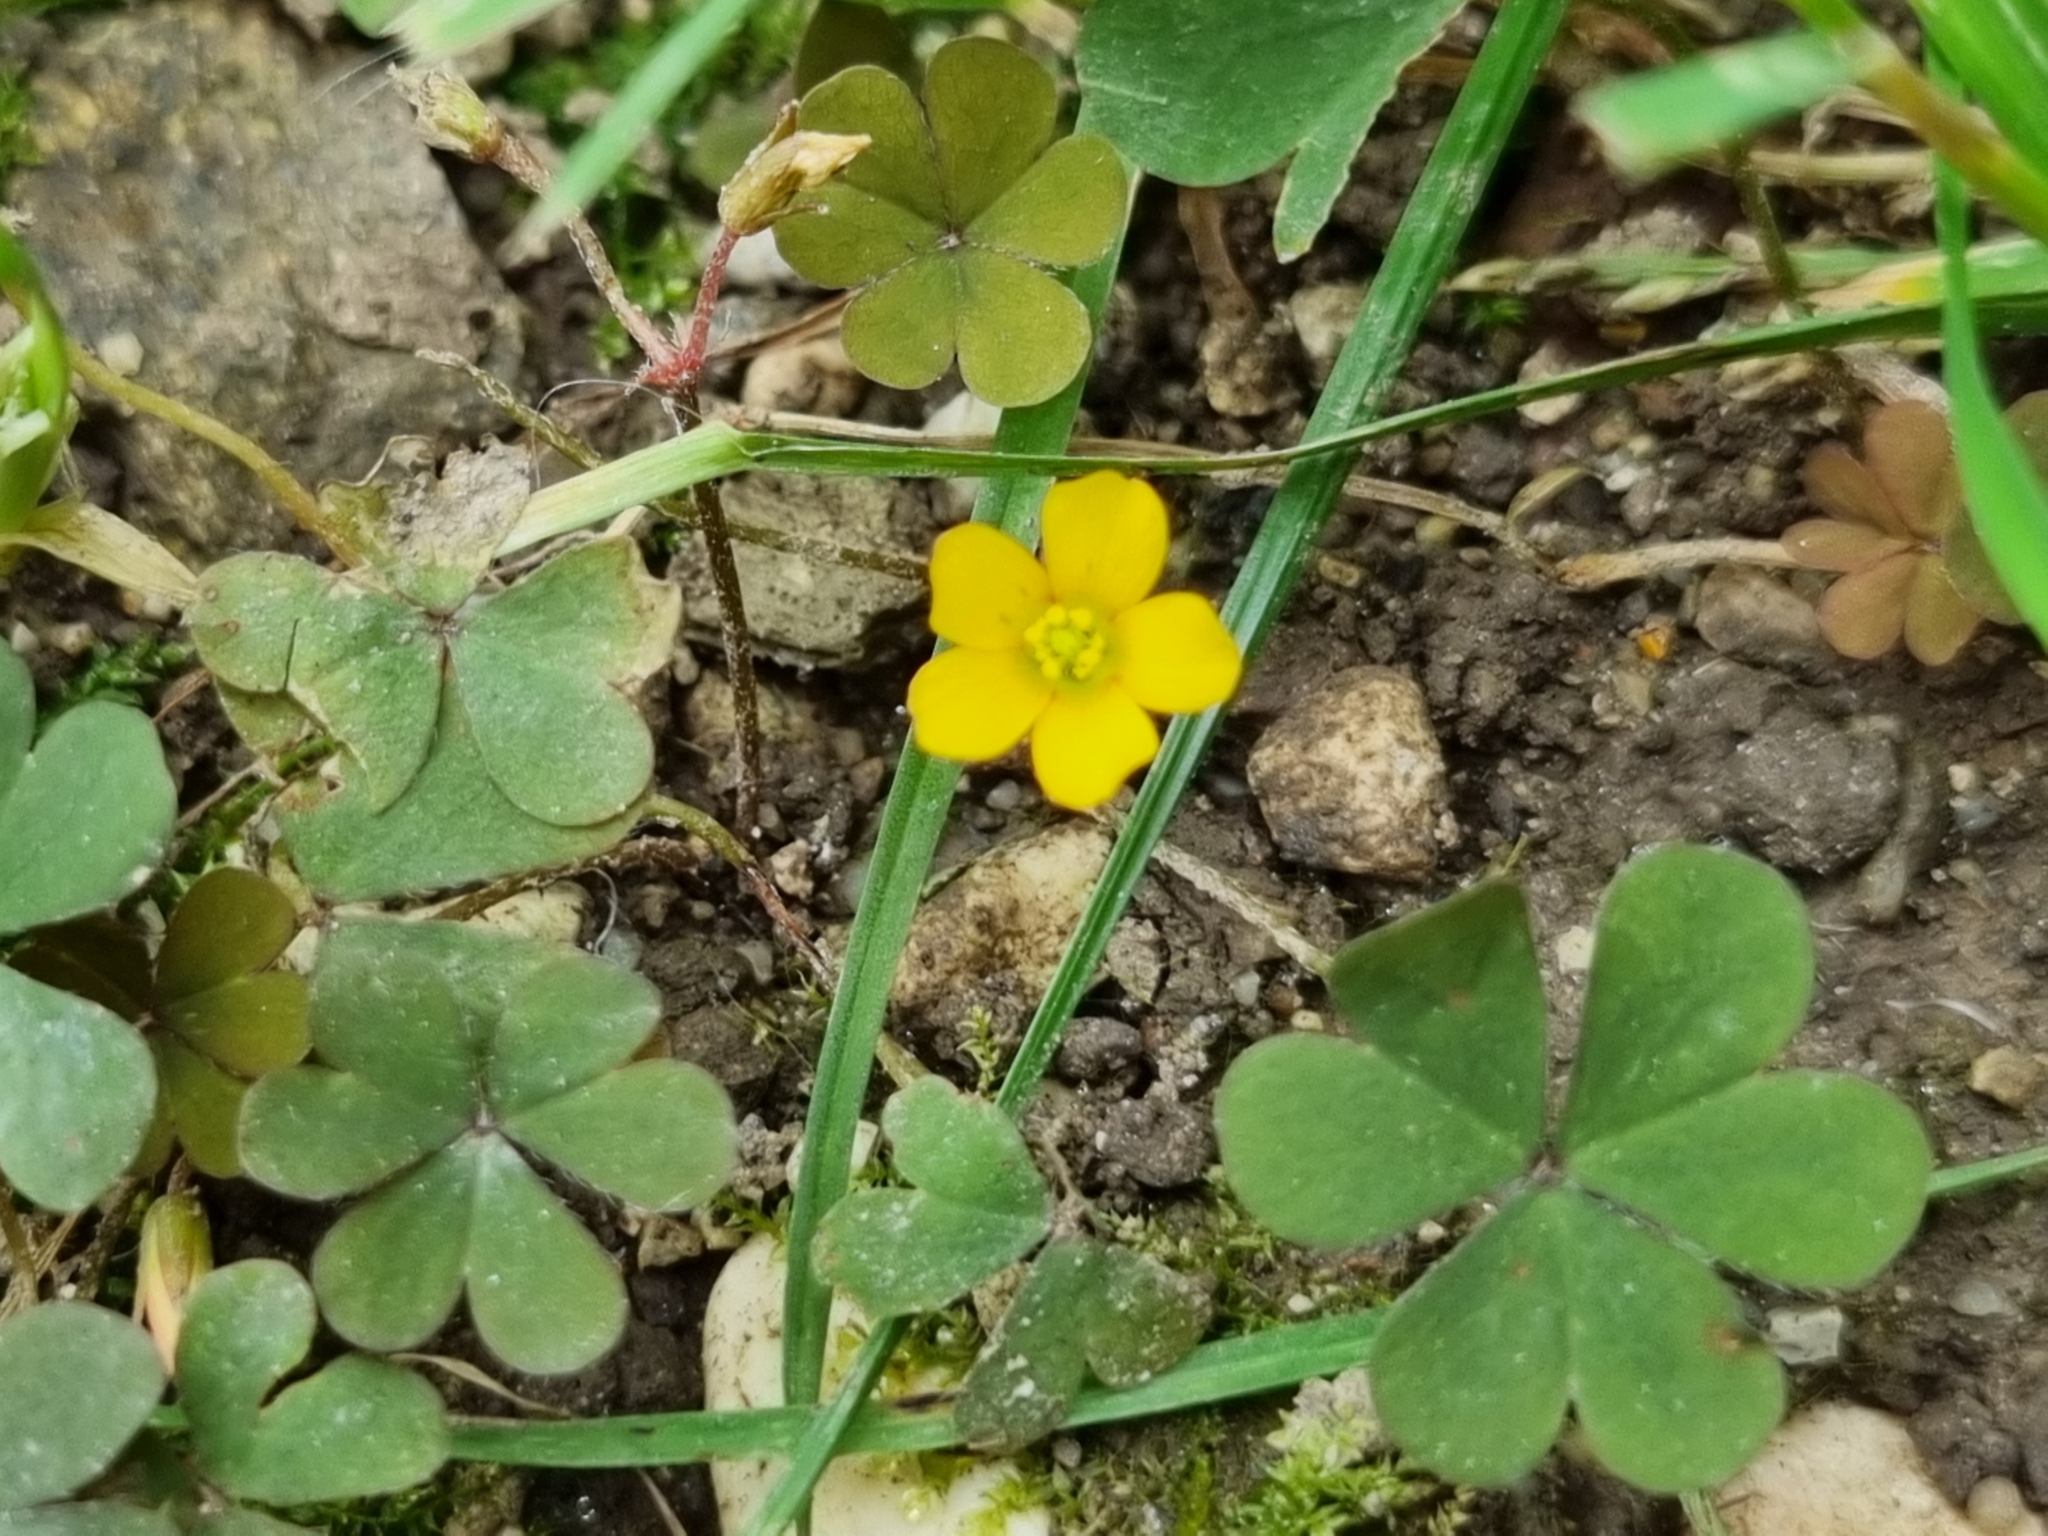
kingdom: Plantae
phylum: Tracheophyta
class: Magnoliopsida
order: Oxalidales
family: Oxalidaceae
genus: Oxalis
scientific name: Oxalis corniculata
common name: Procumbent yellow-sorrel
